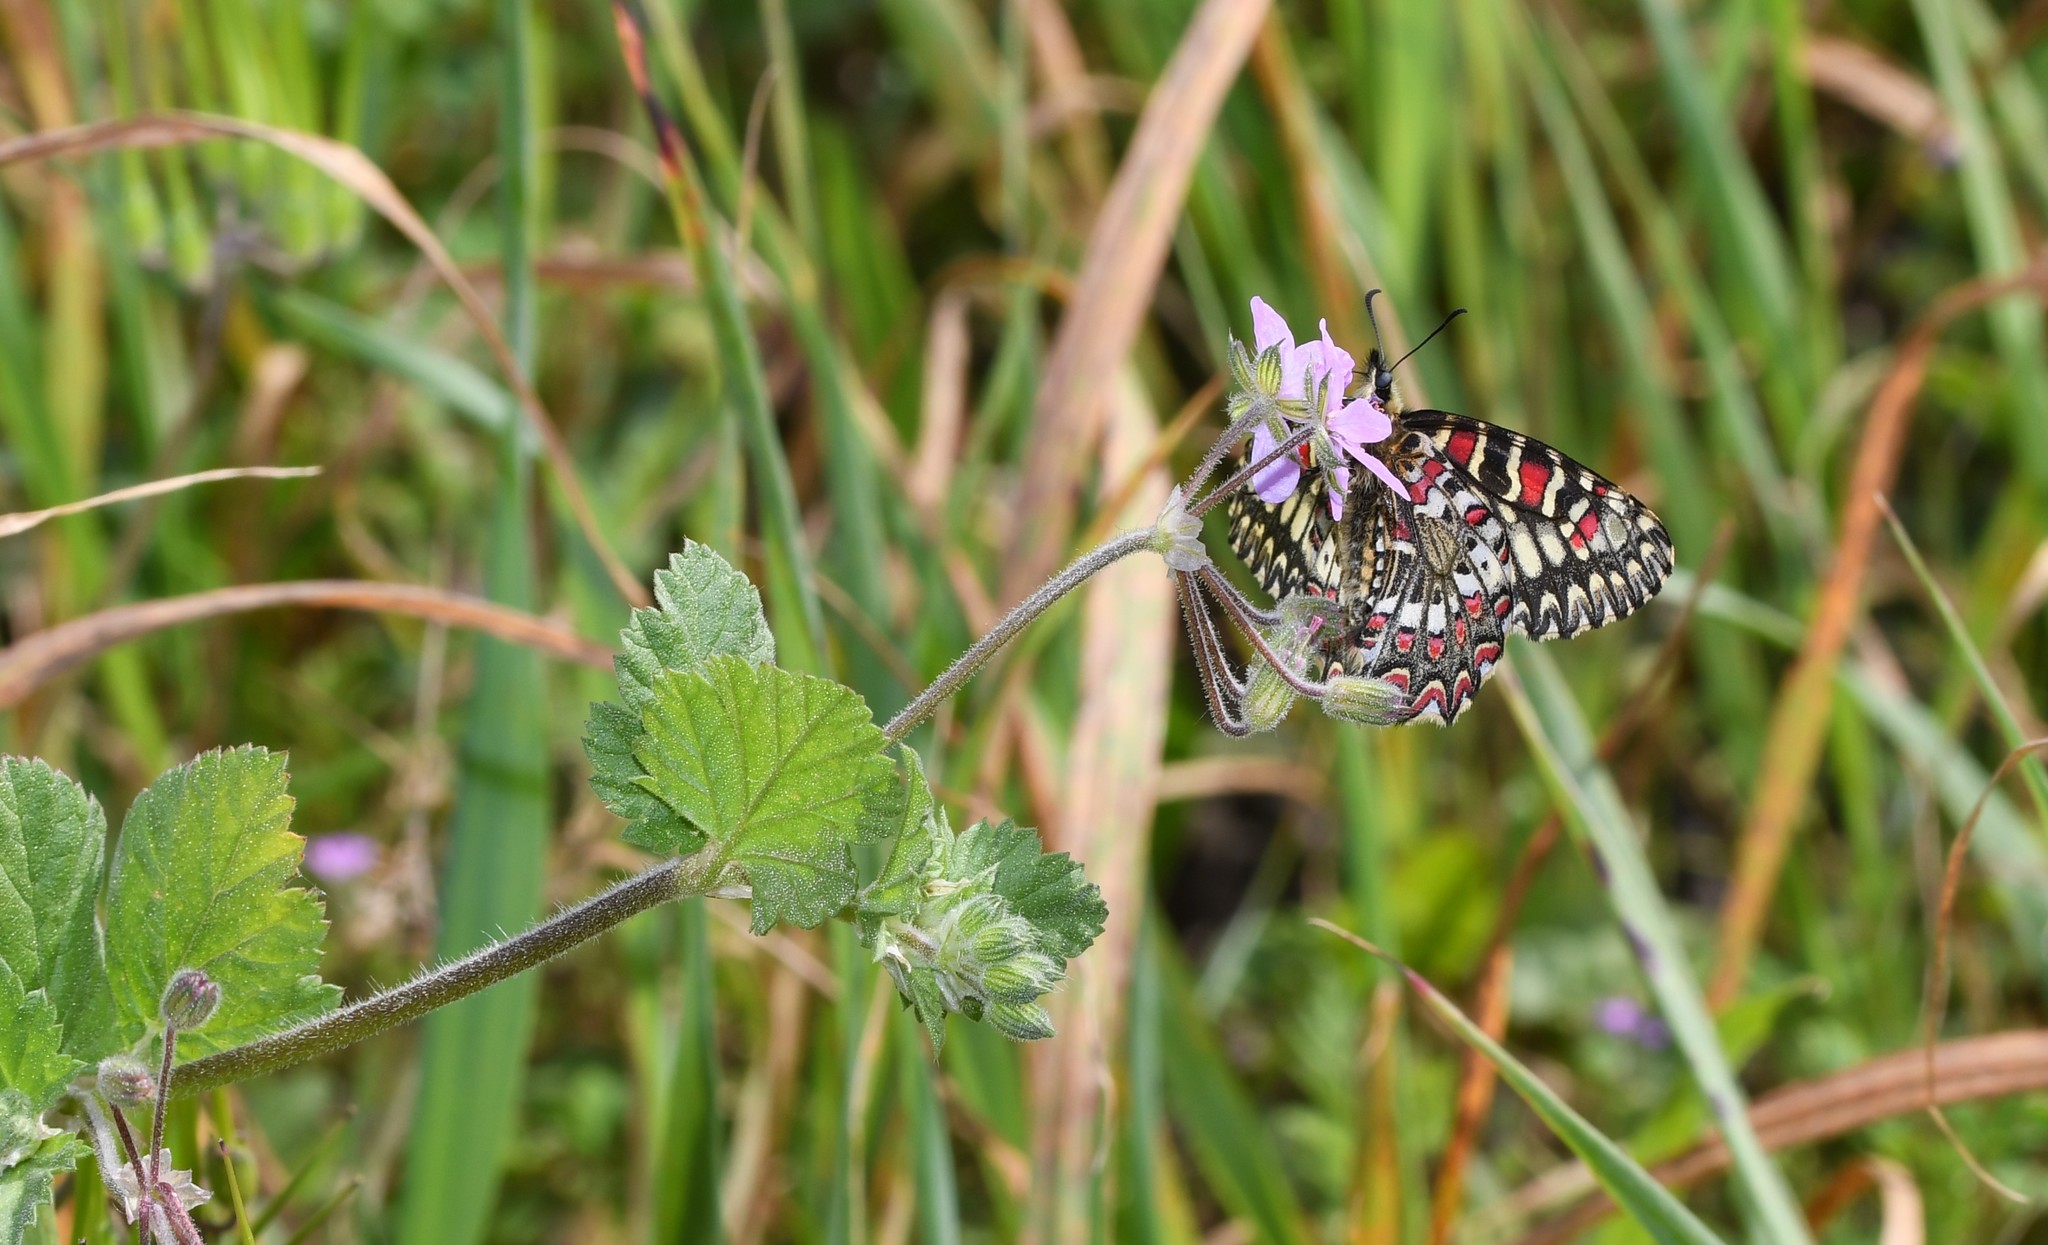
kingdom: Animalia
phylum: Arthropoda
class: Insecta
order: Lepidoptera
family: Papilionidae
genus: Zerynthia
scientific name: Zerynthia rumina
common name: Spanish festoon
